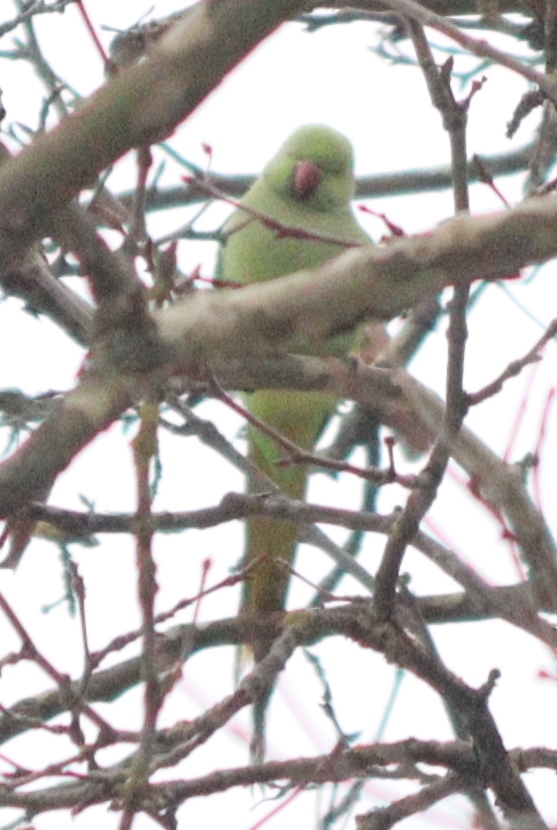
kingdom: Animalia
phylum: Chordata
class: Aves
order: Psittaciformes
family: Psittacidae
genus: Psittacula
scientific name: Psittacula krameri
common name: Rose-ringed parakeet
